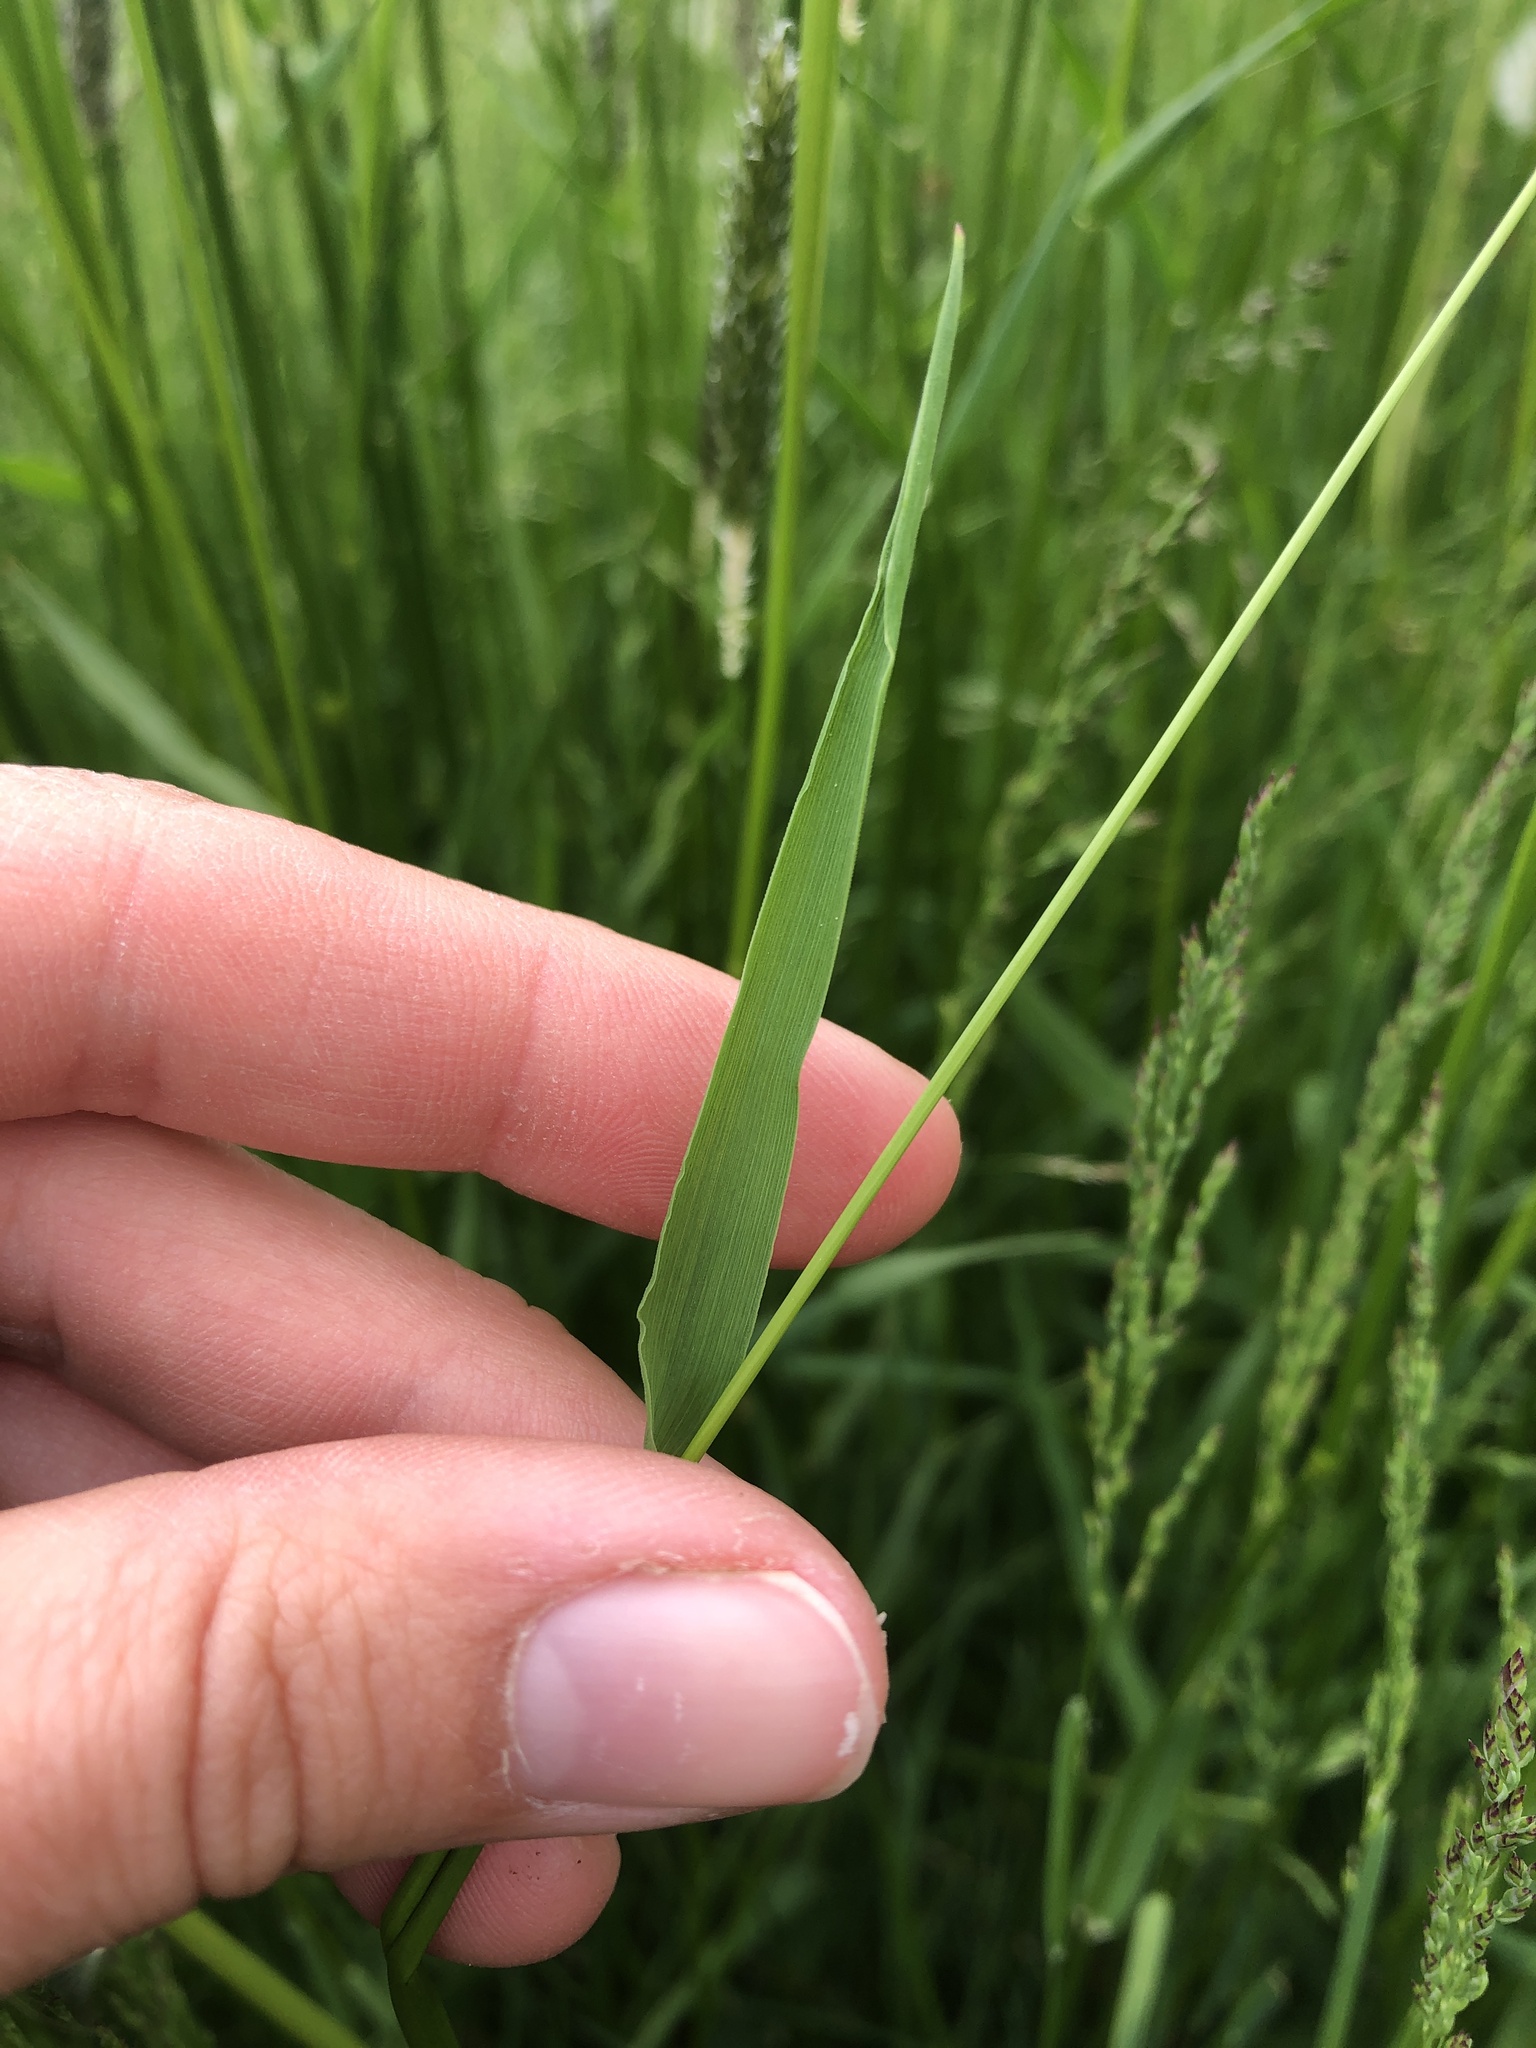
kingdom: Plantae
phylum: Tracheophyta
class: Liliopsida
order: Poales
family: Poaceae
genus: Alopecurus
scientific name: Alopecurus pratensis
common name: Meadow foxtail
